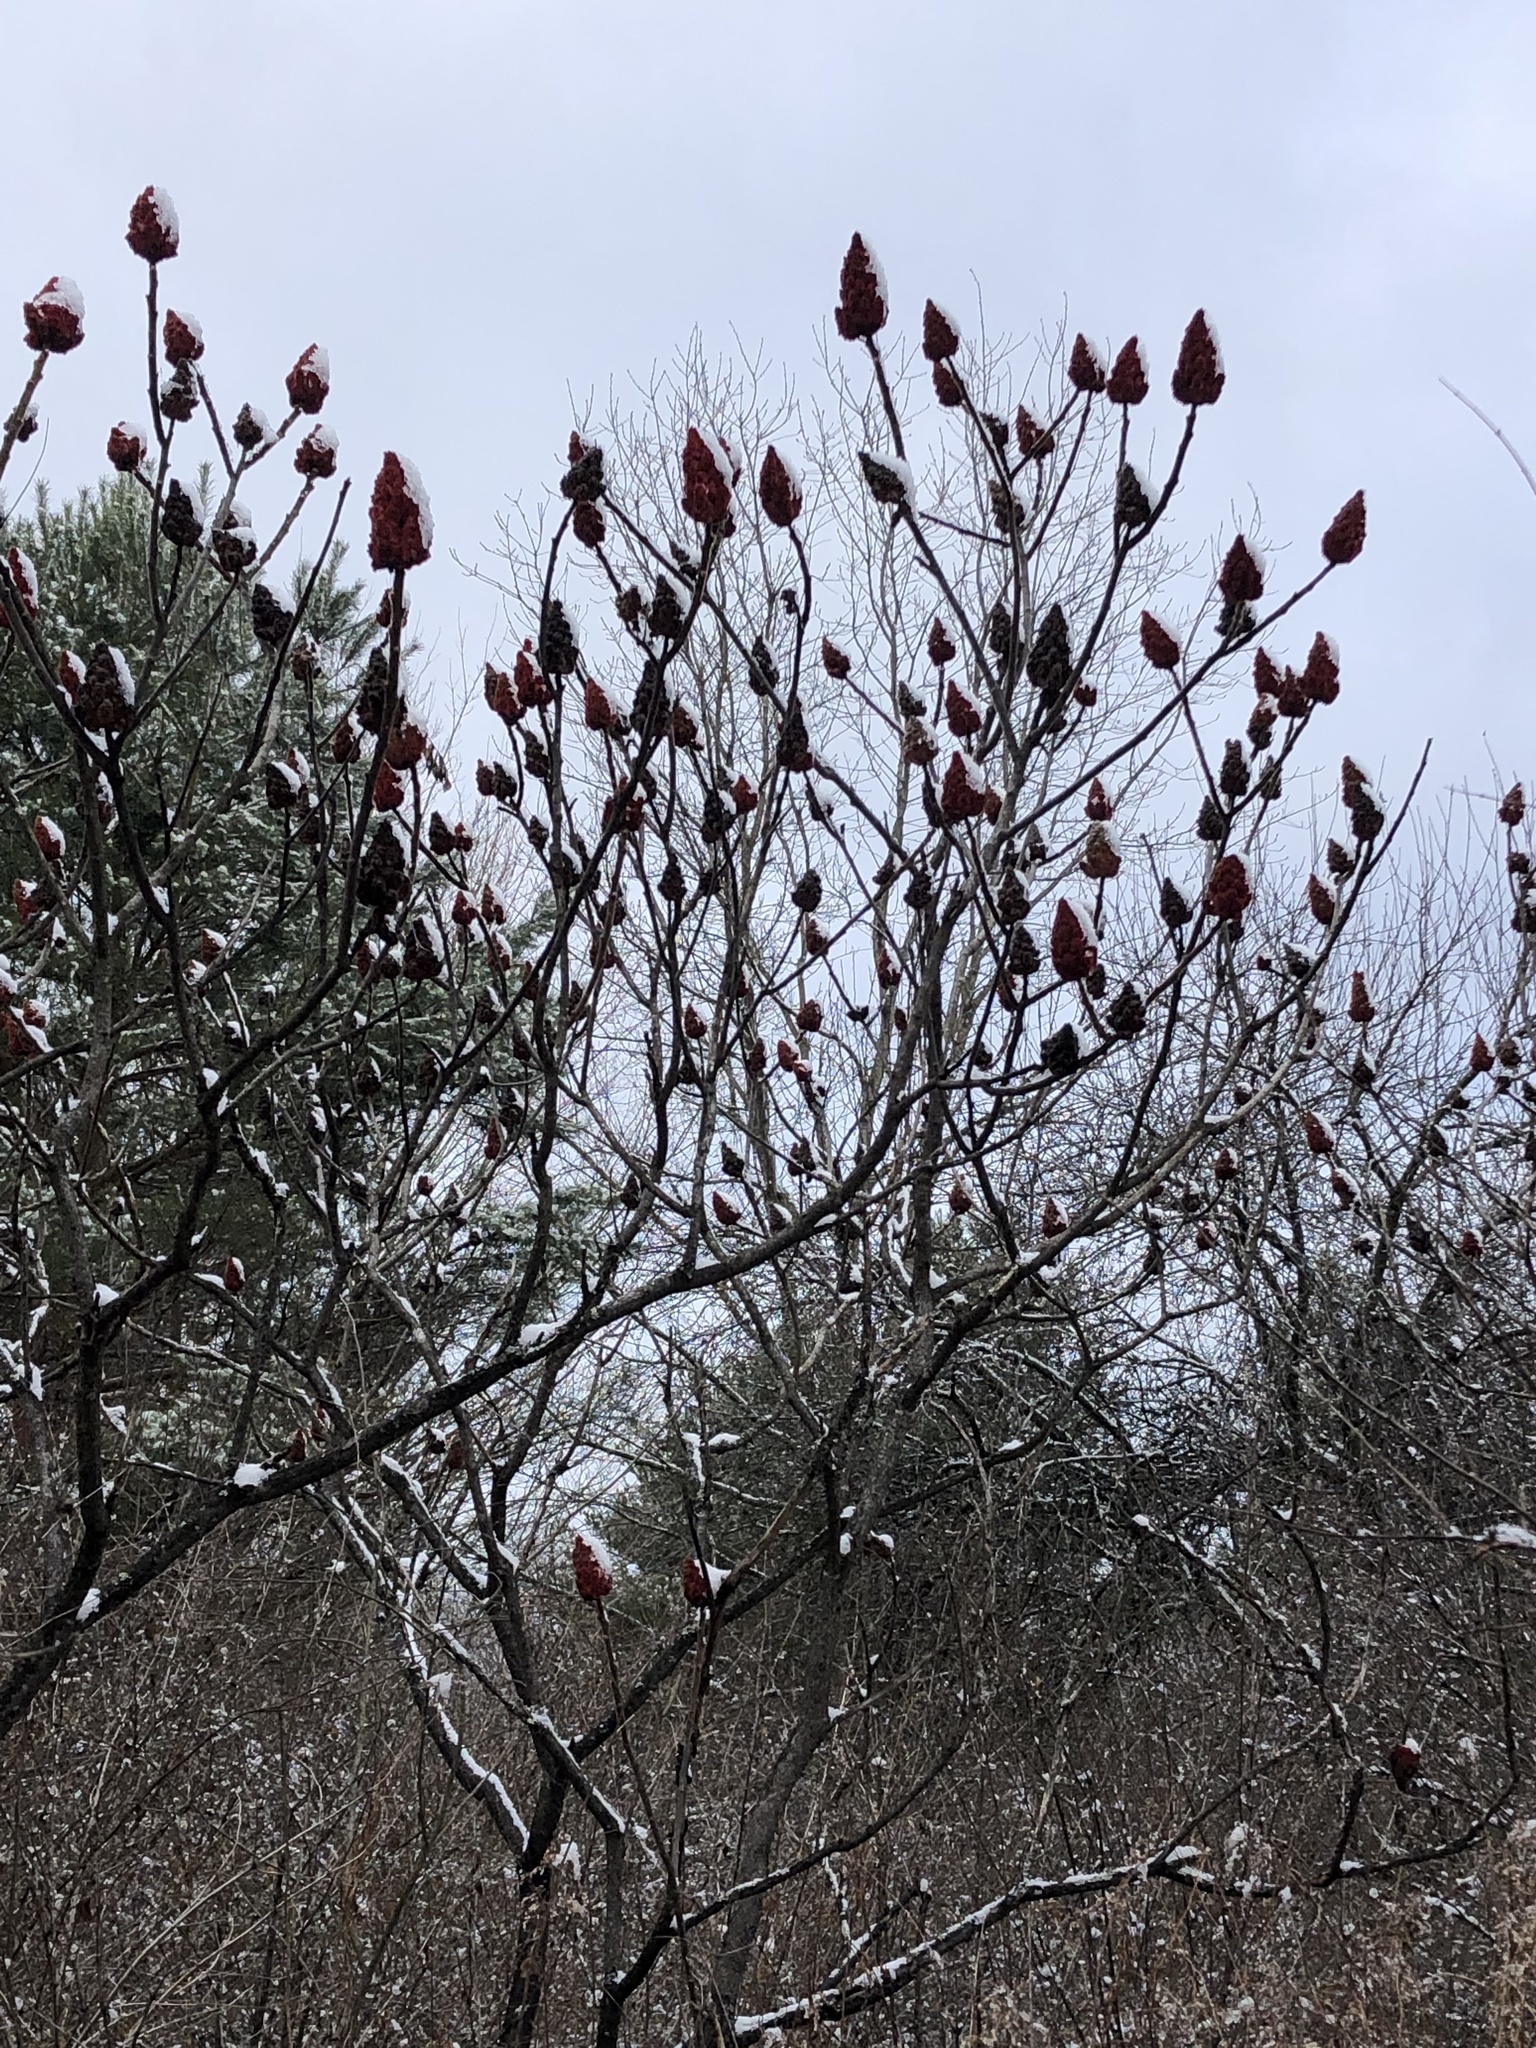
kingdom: Plantae
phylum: Tracheophyta
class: Magnoliopsida
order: Sapindales
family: Anacardiaceae
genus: Rhus
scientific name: Rhus typhina
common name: Staghorn sumac
